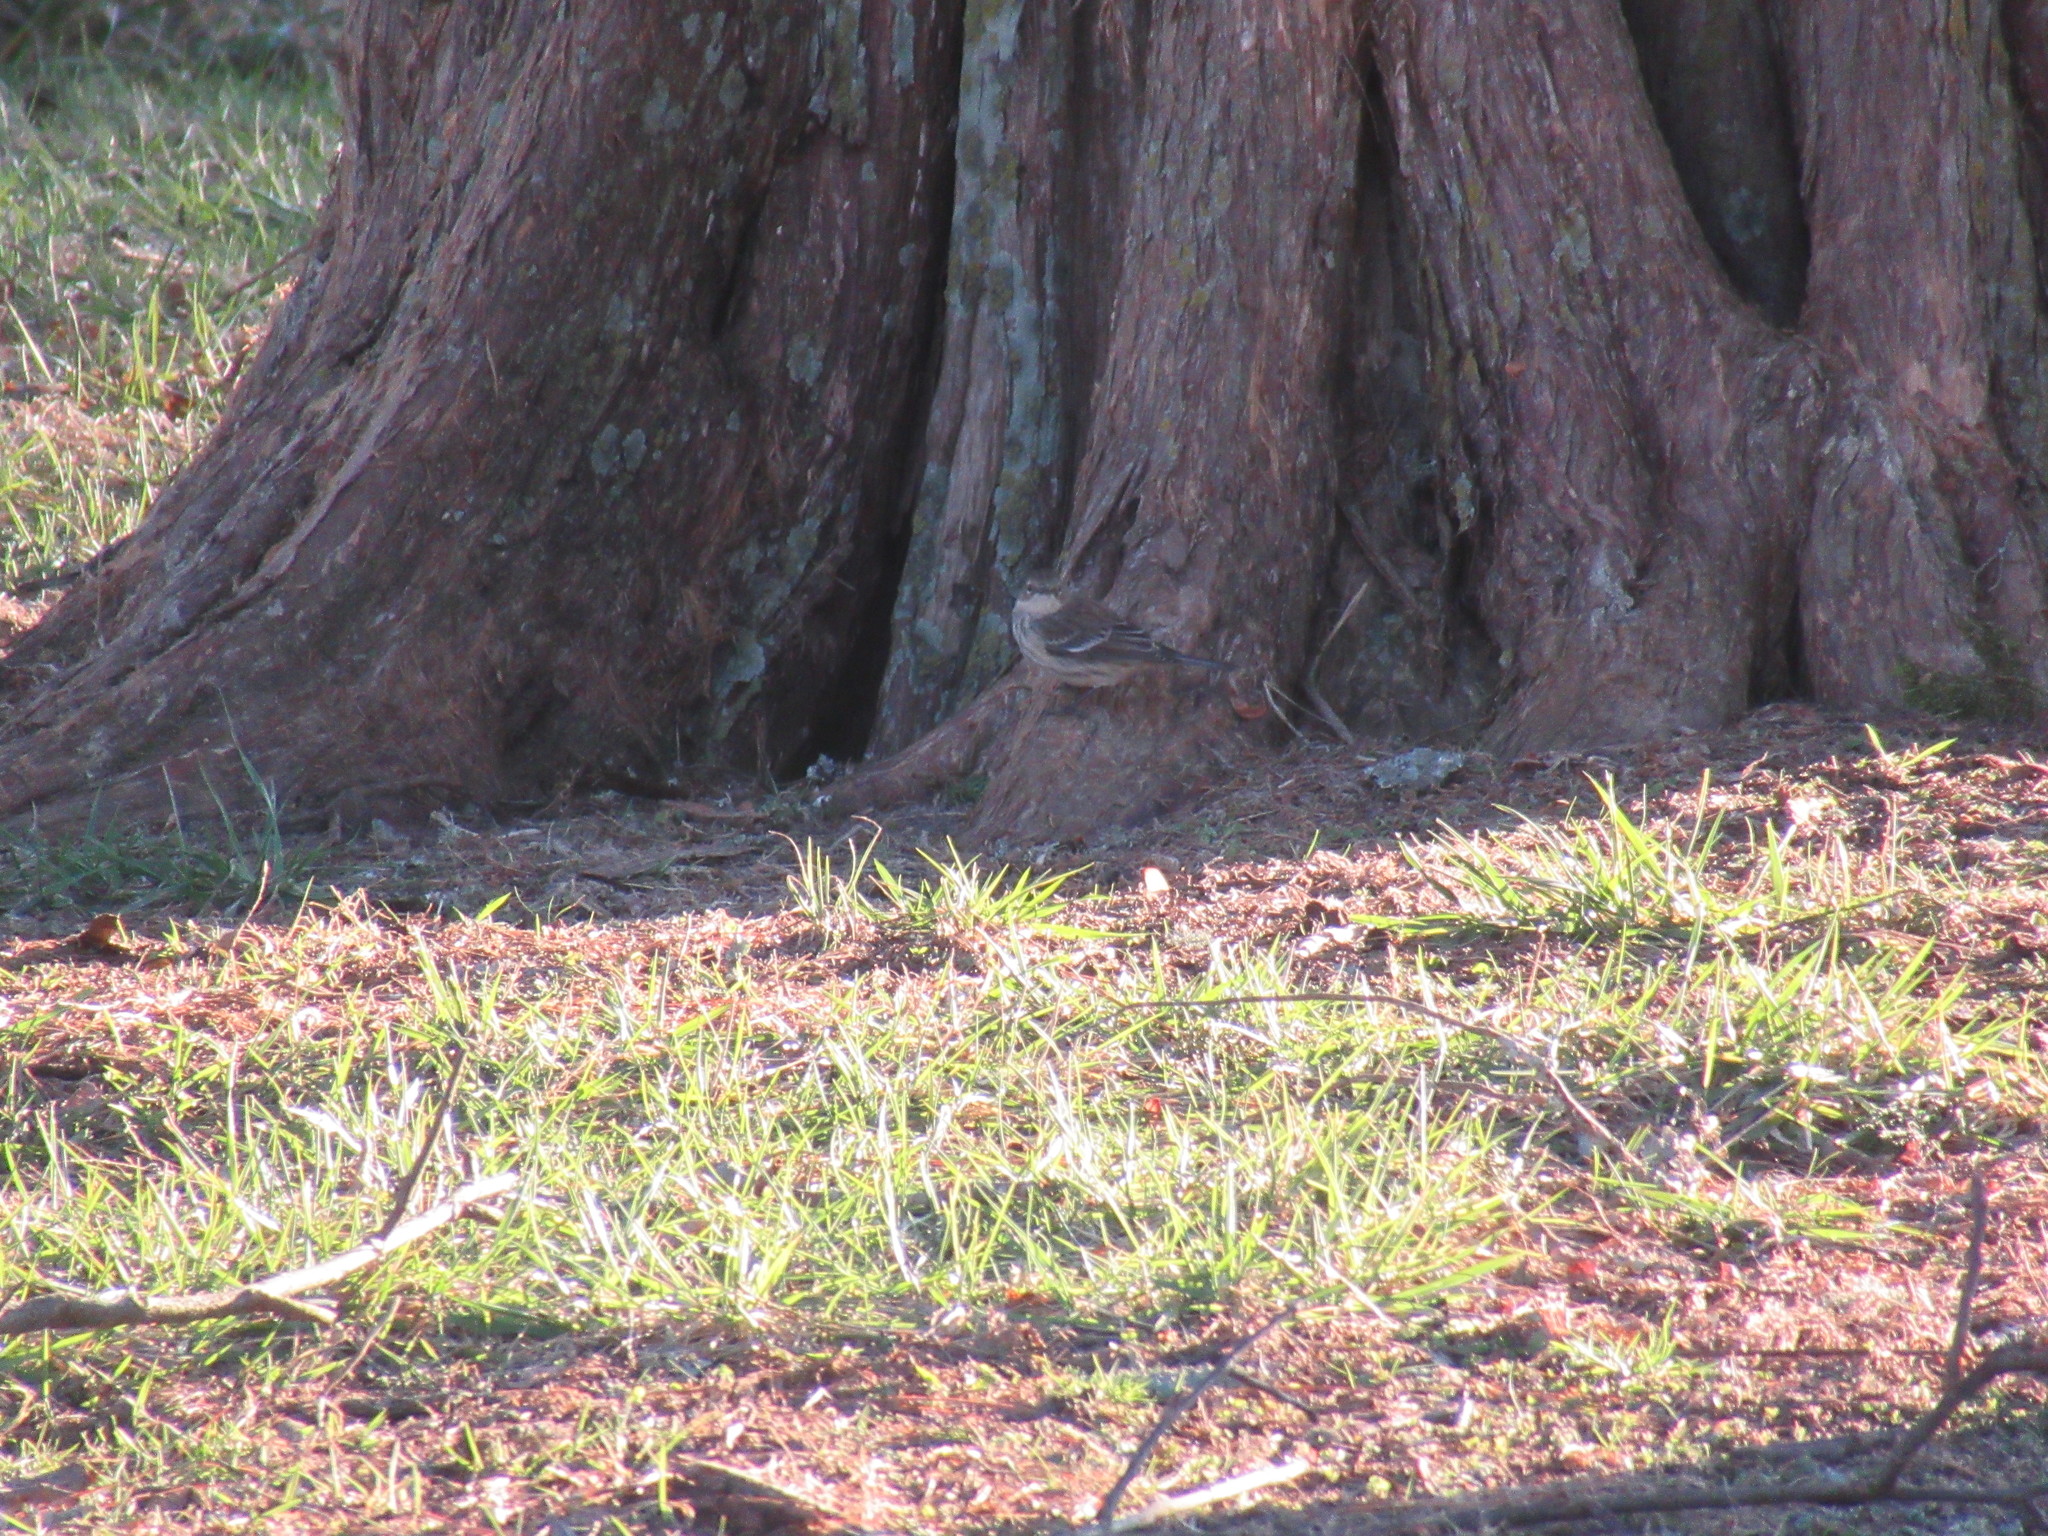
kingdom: Animalia
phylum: Chordata
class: Aves
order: Passeriformes
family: Parulidae
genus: Setophaga
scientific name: Setophaga coronata
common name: Myrtle warbler
